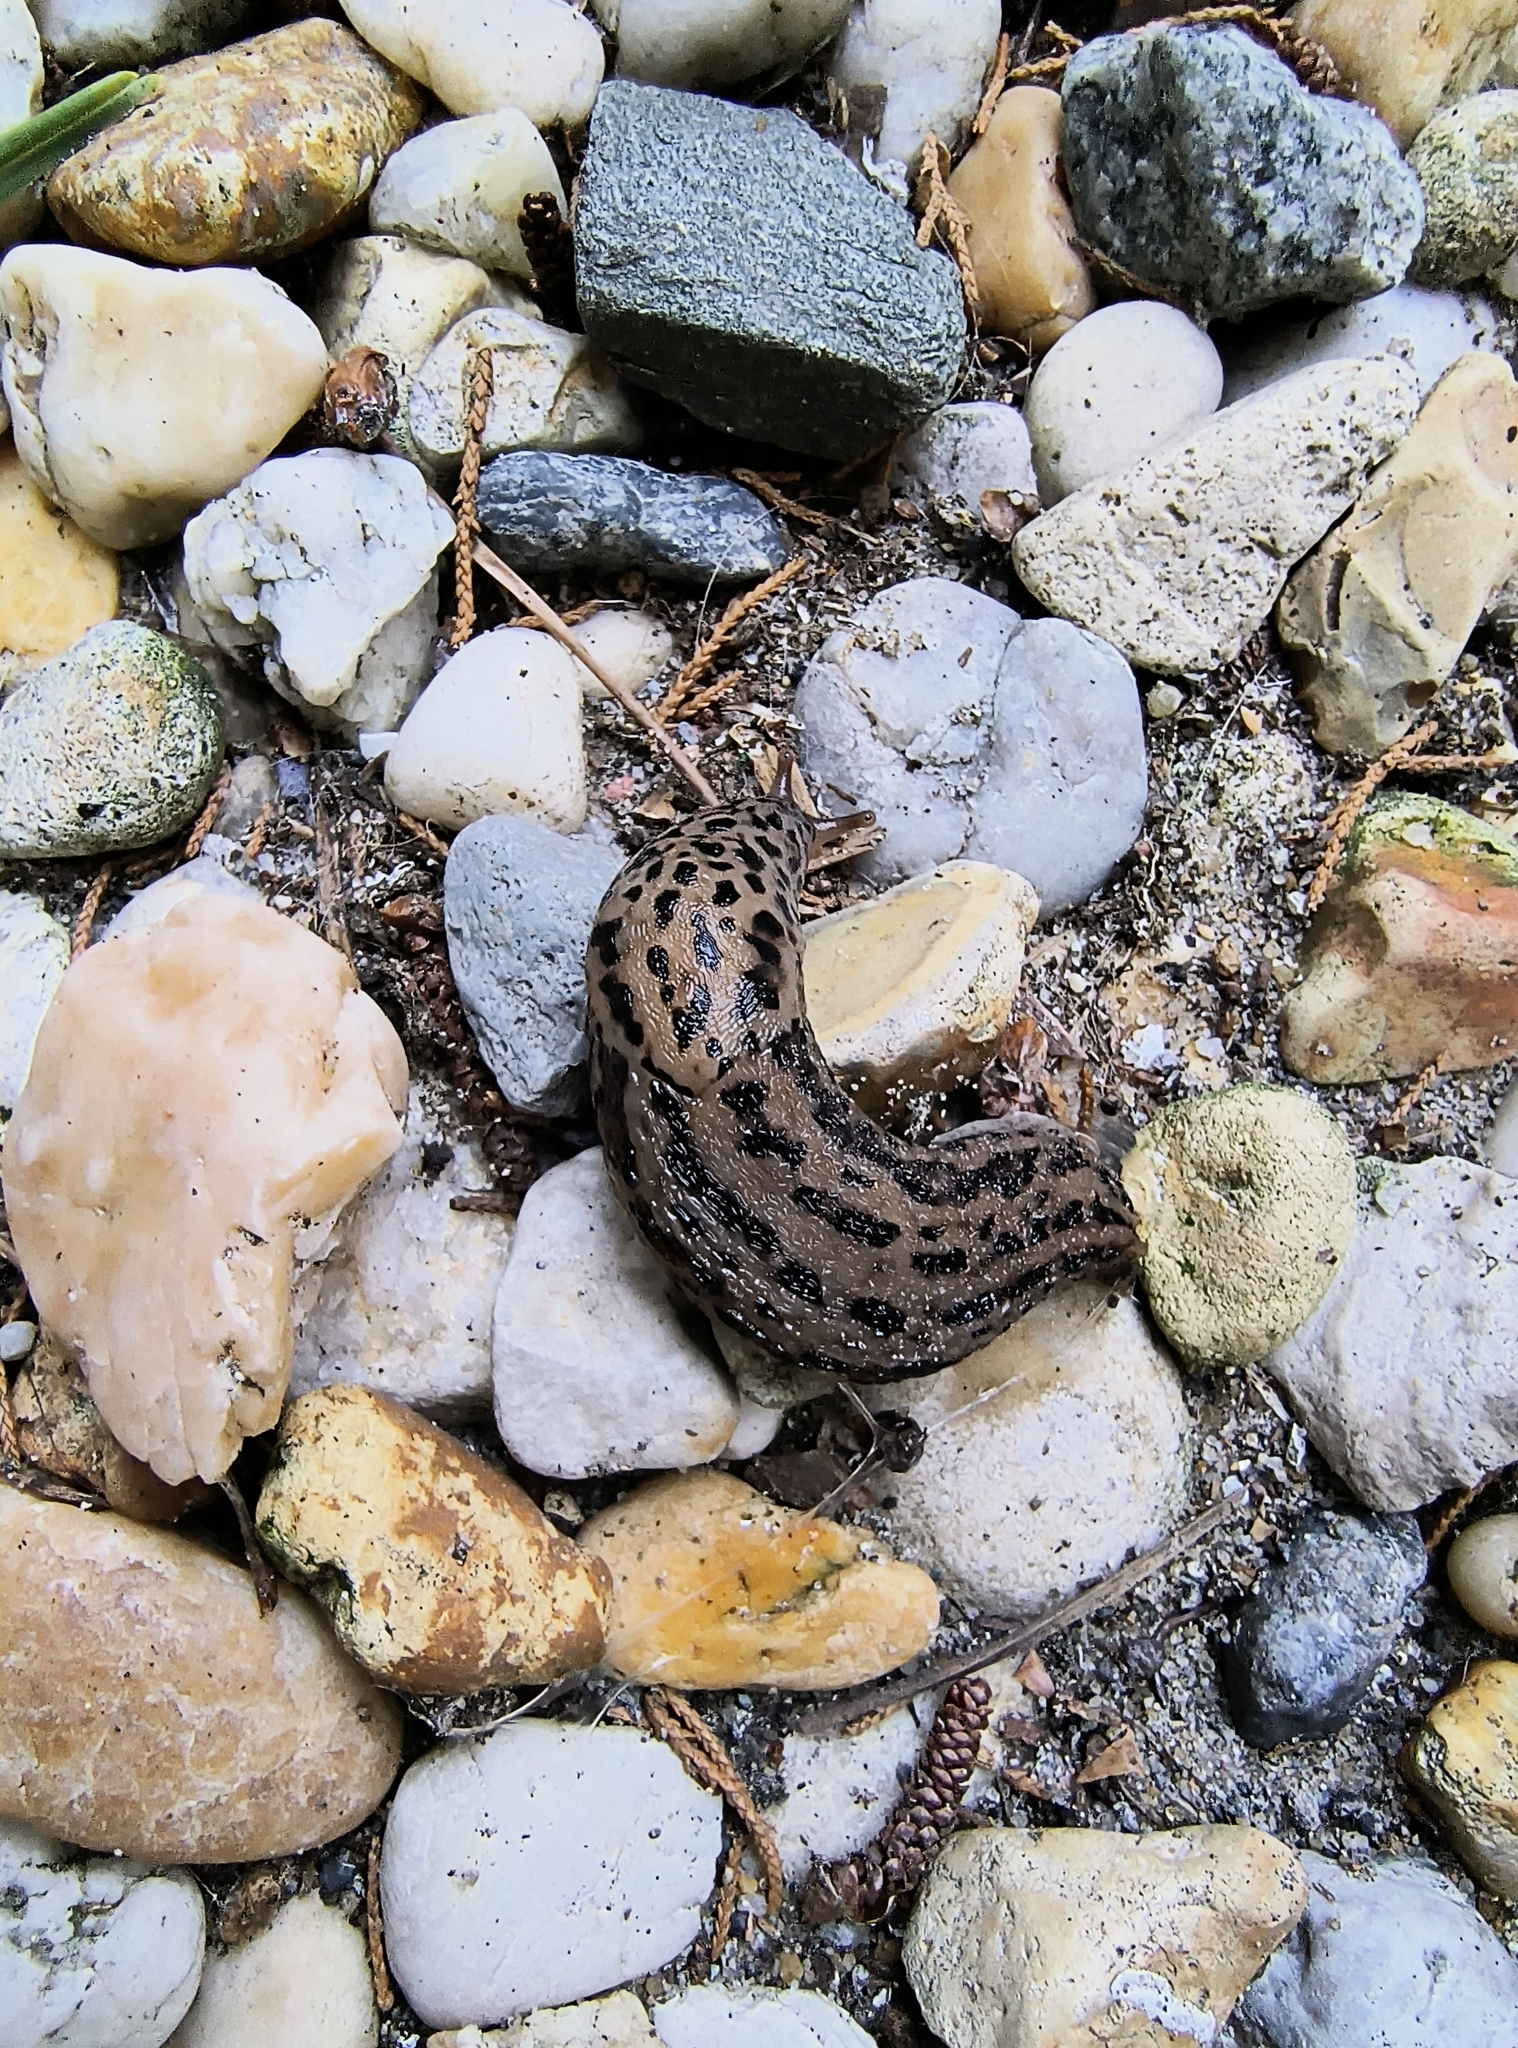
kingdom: Animalia
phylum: Mollusca
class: Gastropoda
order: Stylommatophora
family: Limacidae
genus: Limax
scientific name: Limax maximus
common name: Great grey slug
